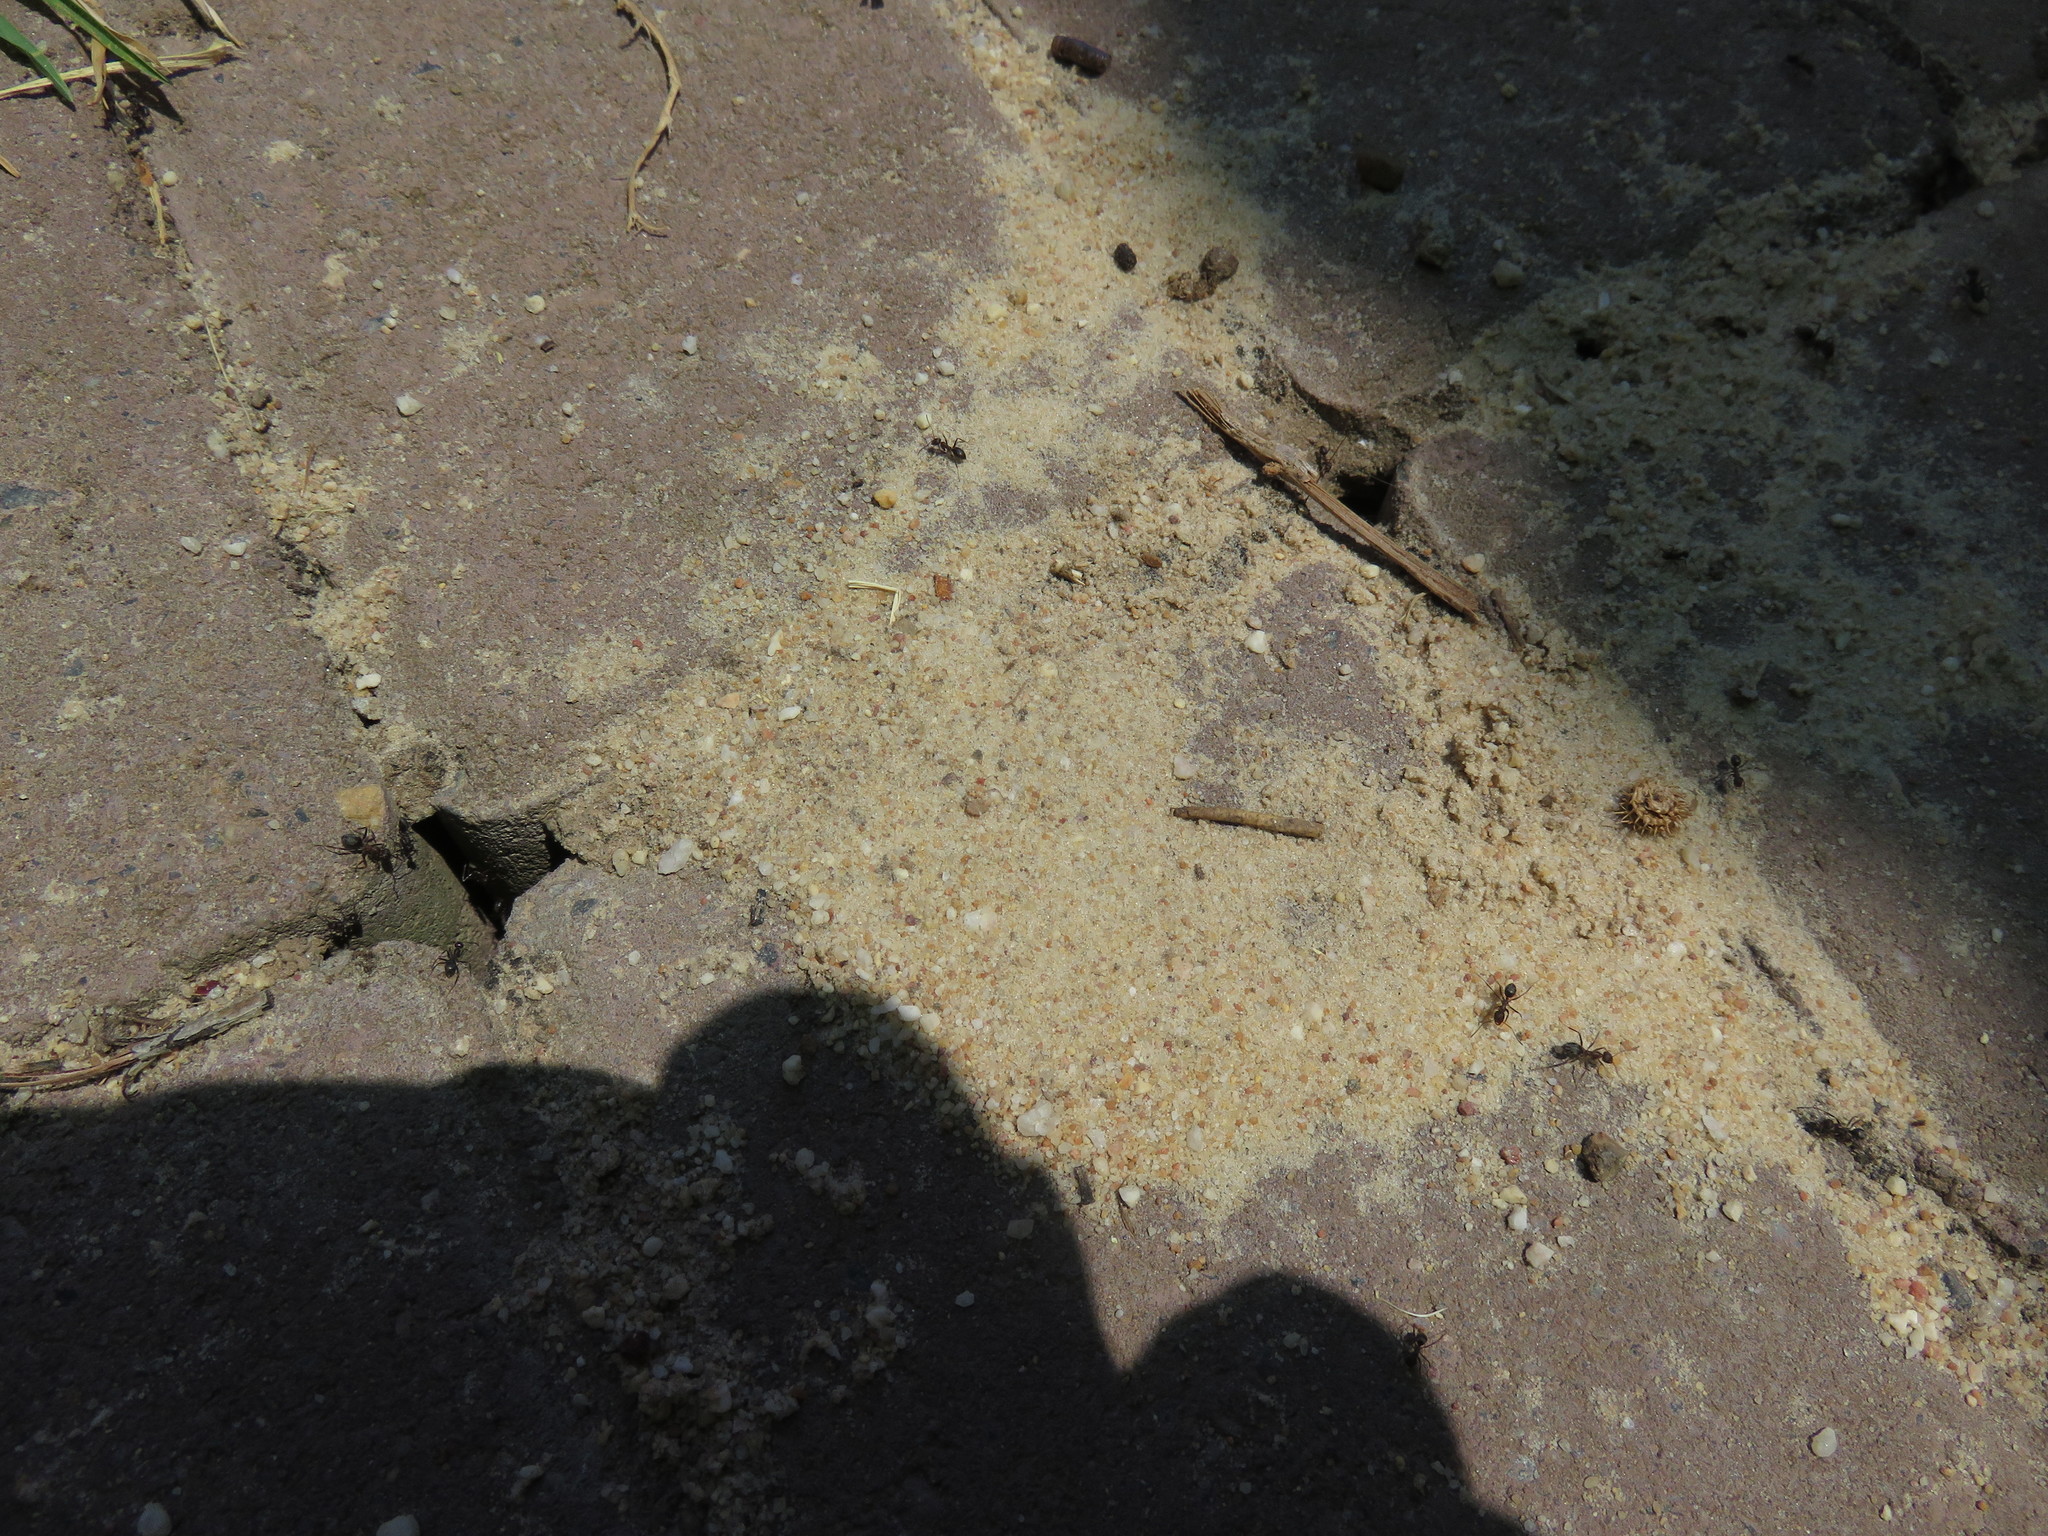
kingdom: Animalia
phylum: Arthropoda
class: Insecta
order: Hymenoptera
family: Formicidae
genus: Anoplolepis
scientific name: Anoplolepis steingroeveri
